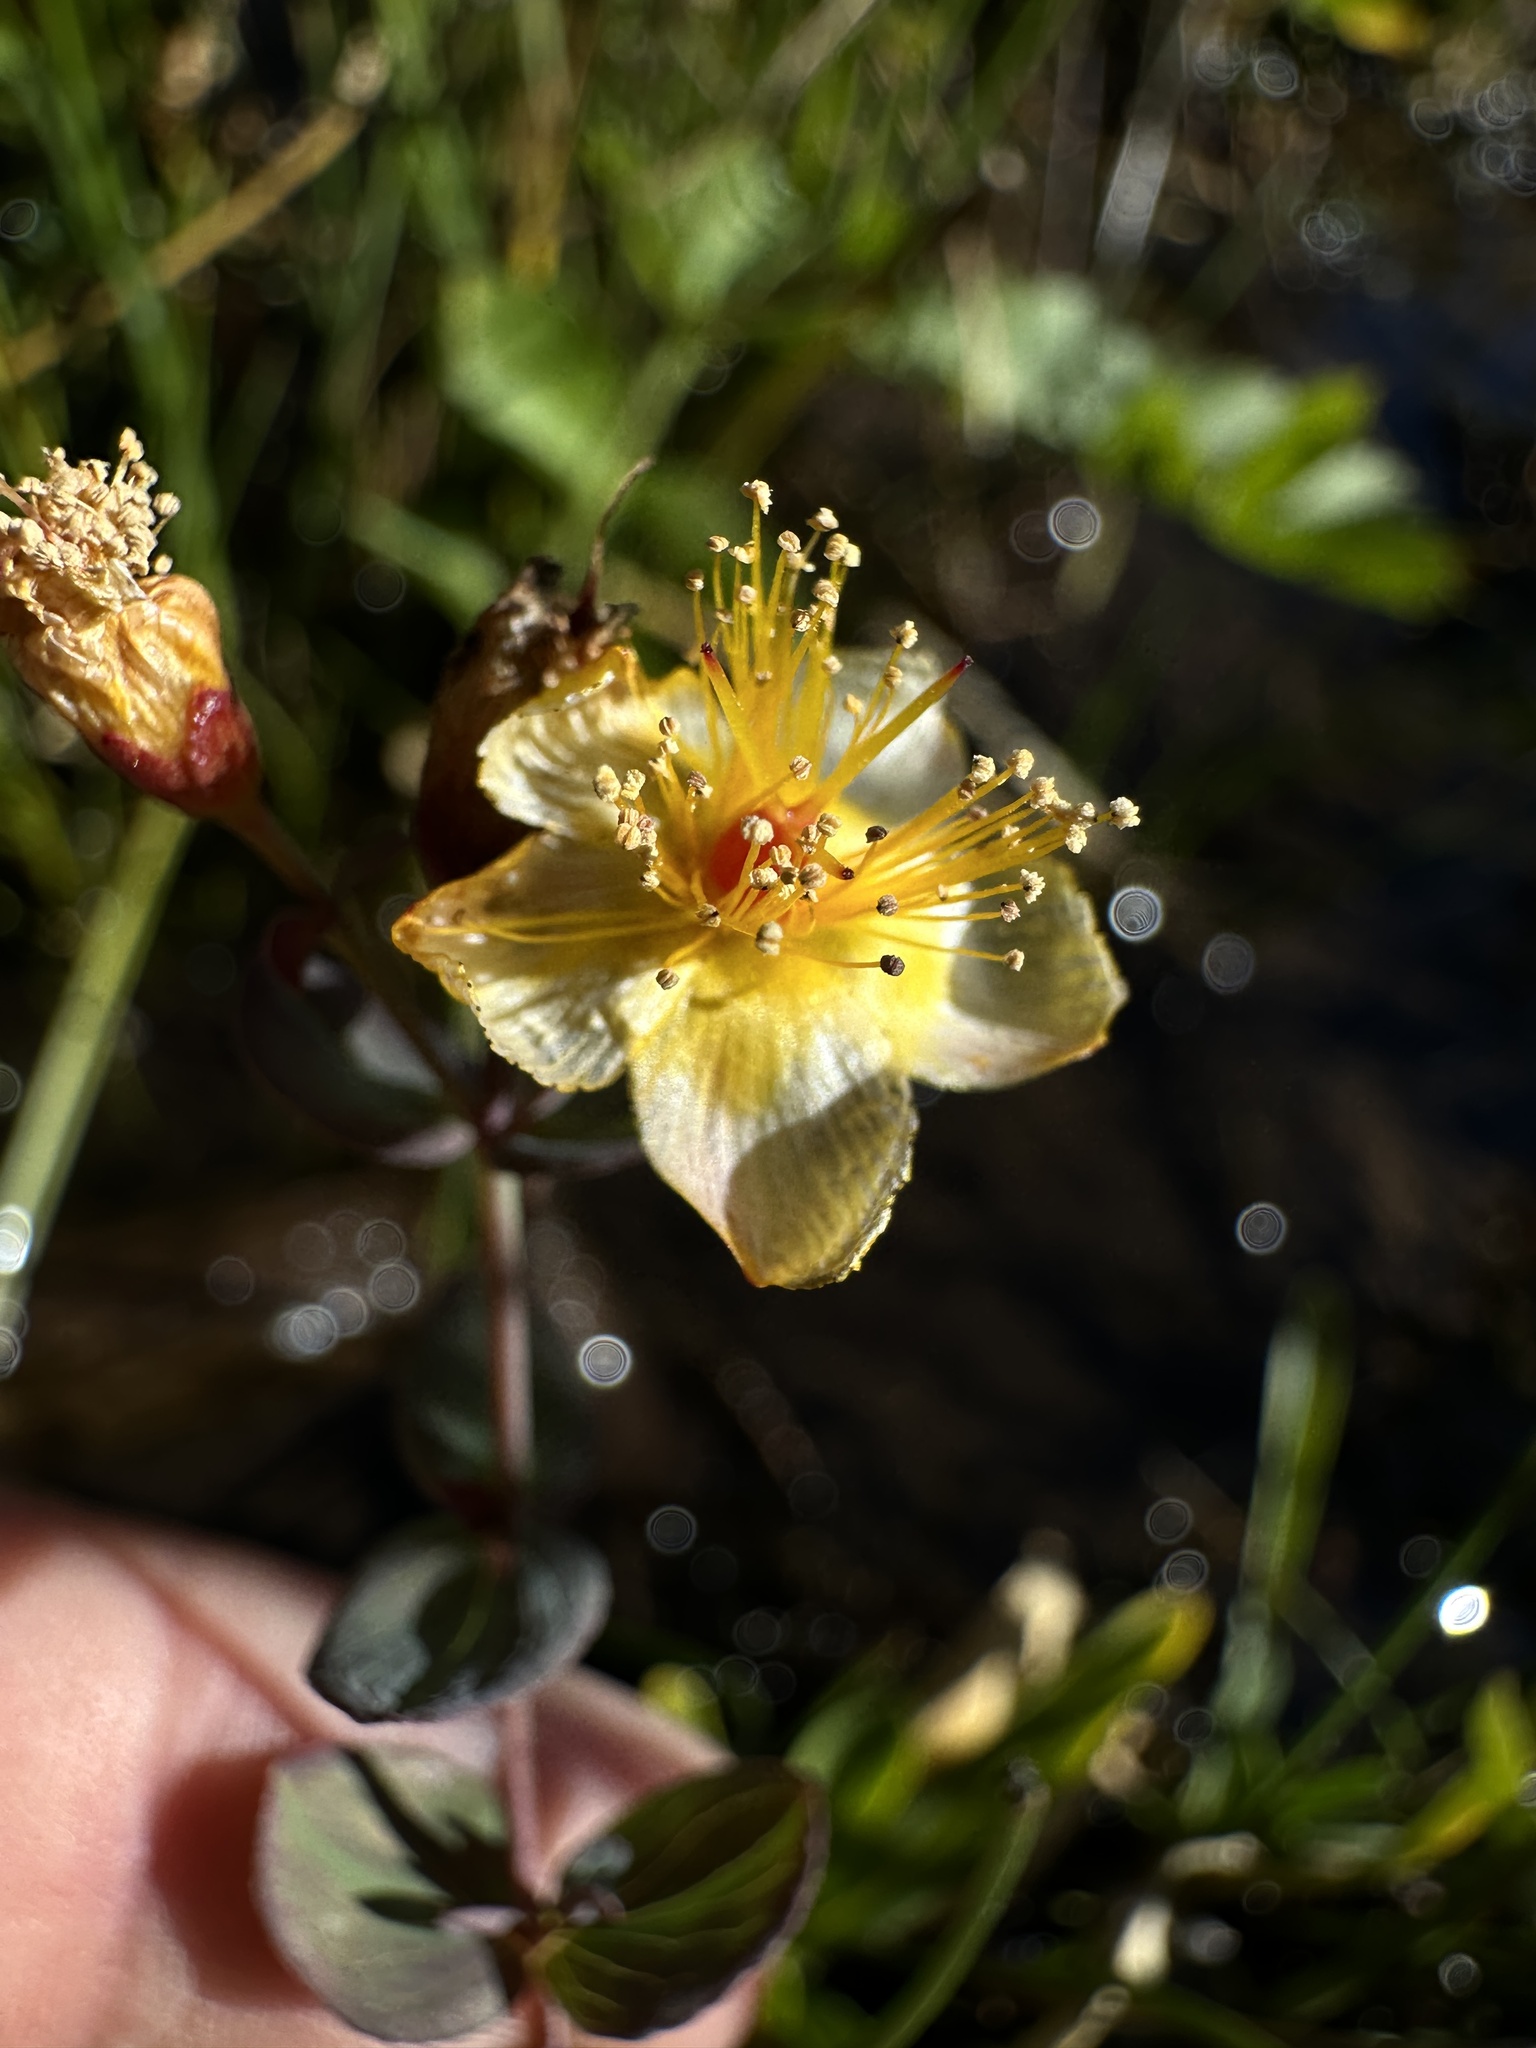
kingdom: Plantae
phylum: Tracheophyta
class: Magnoliopsida
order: Malpighiales
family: Hypericaceae
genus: Hypericum
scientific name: Hypericum scouleri
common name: Scouler's st. john's-wort
